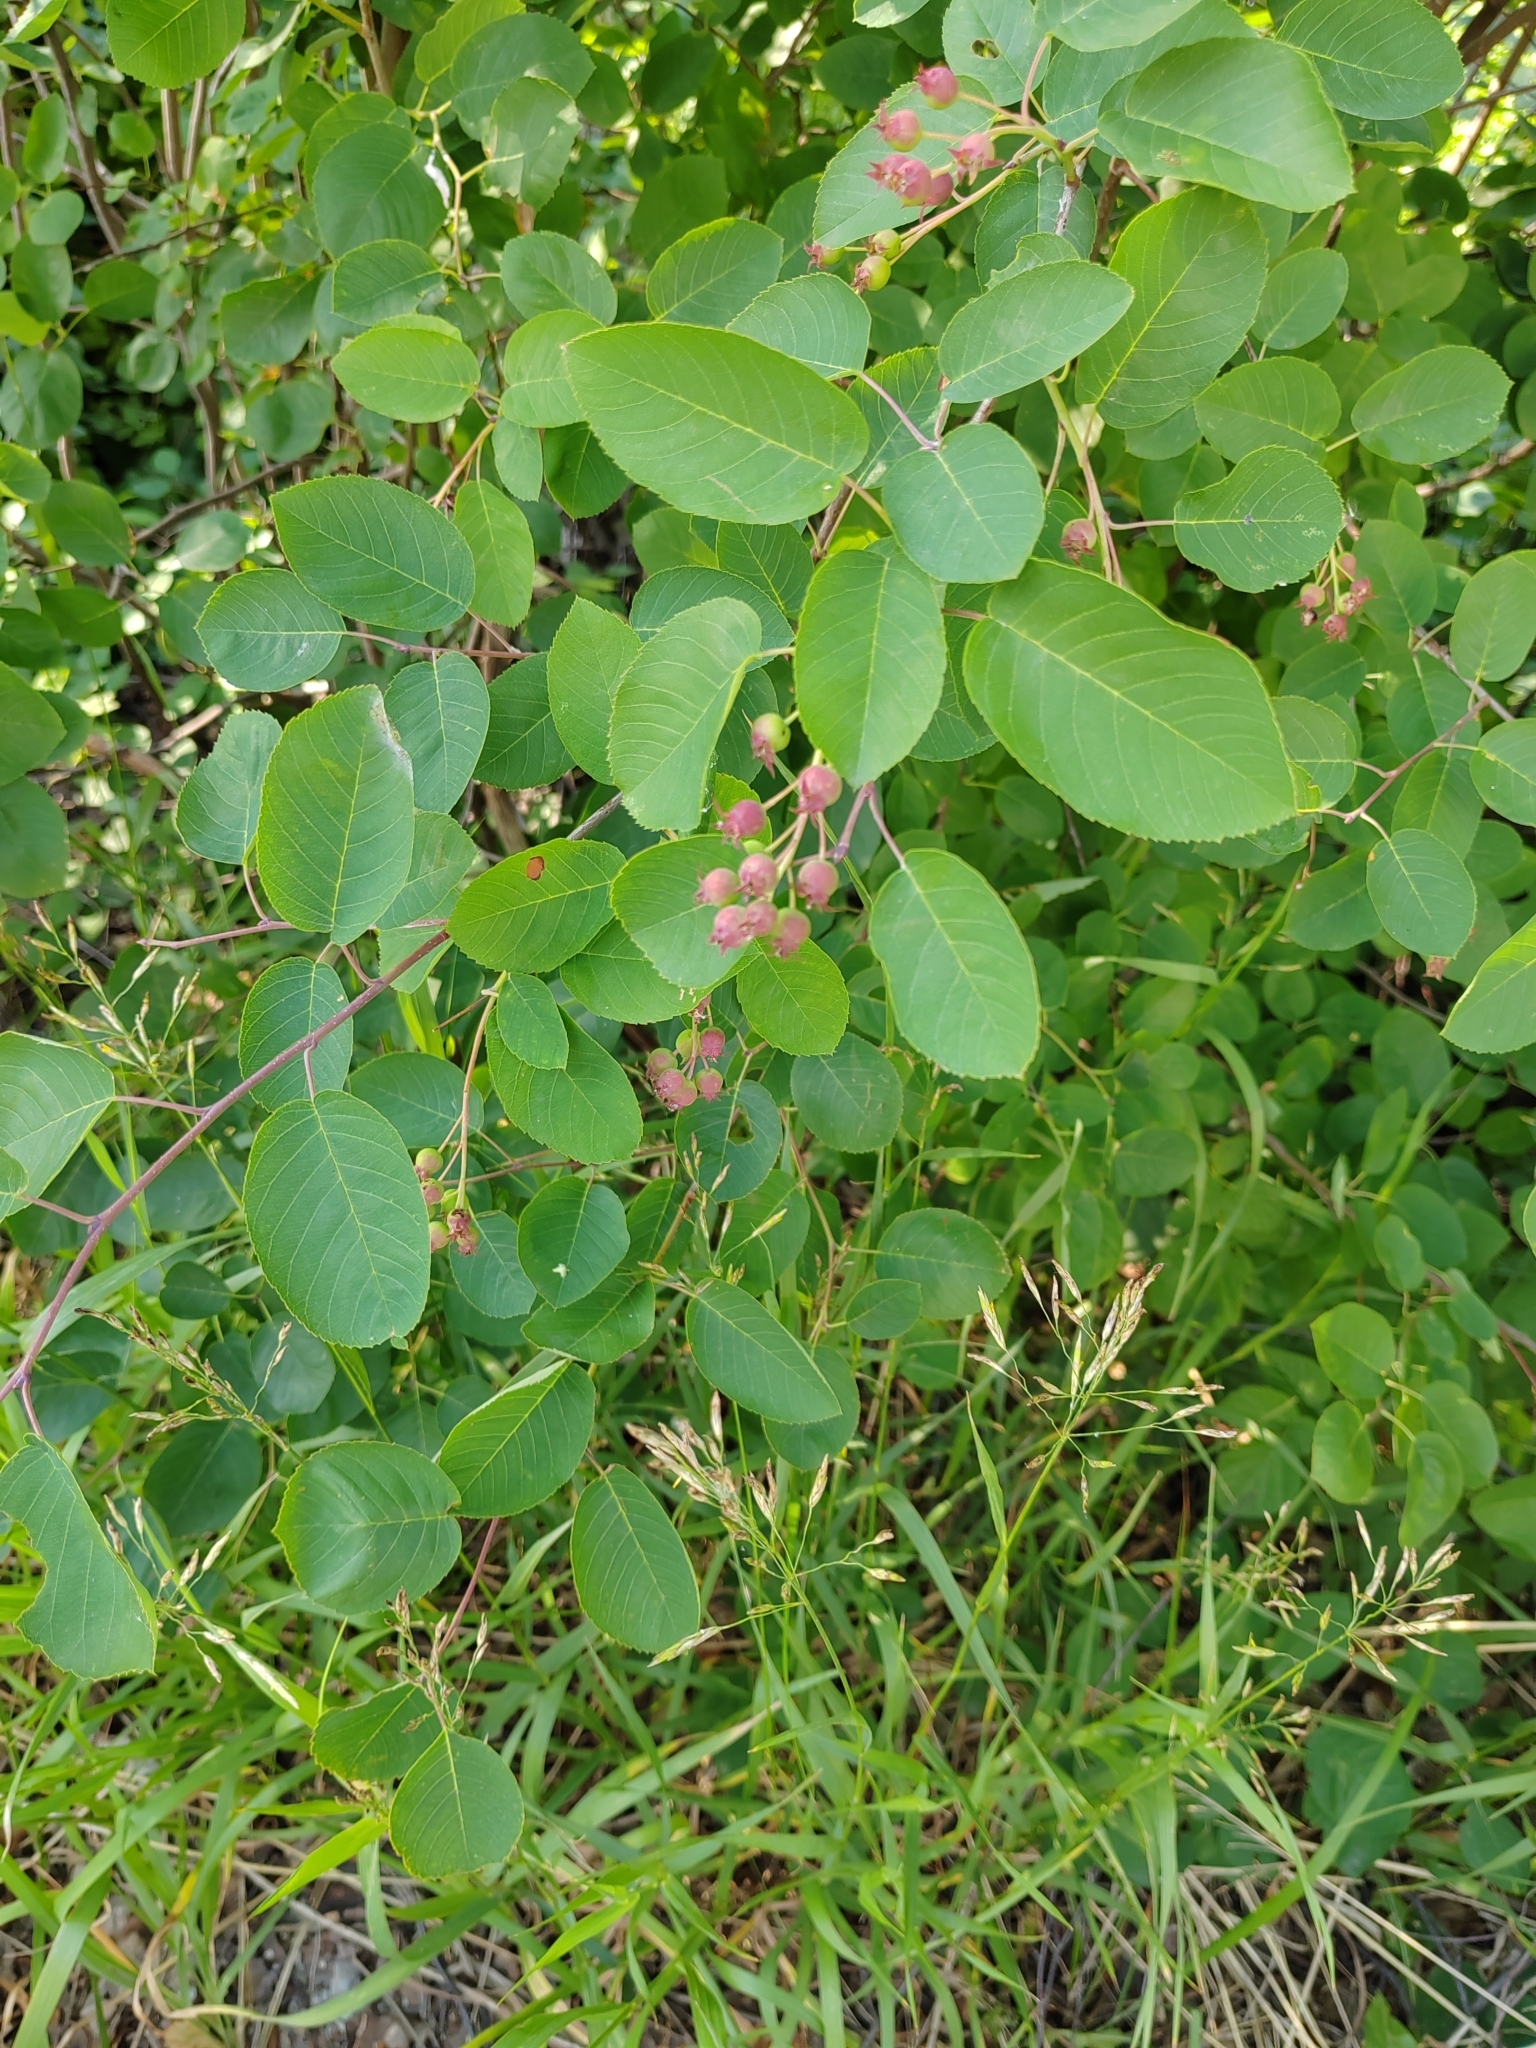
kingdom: Plantae
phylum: Tracheophyta
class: Magnoliopsida
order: Rosales
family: Rosaceae
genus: Amelanchier
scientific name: Amelanchier
